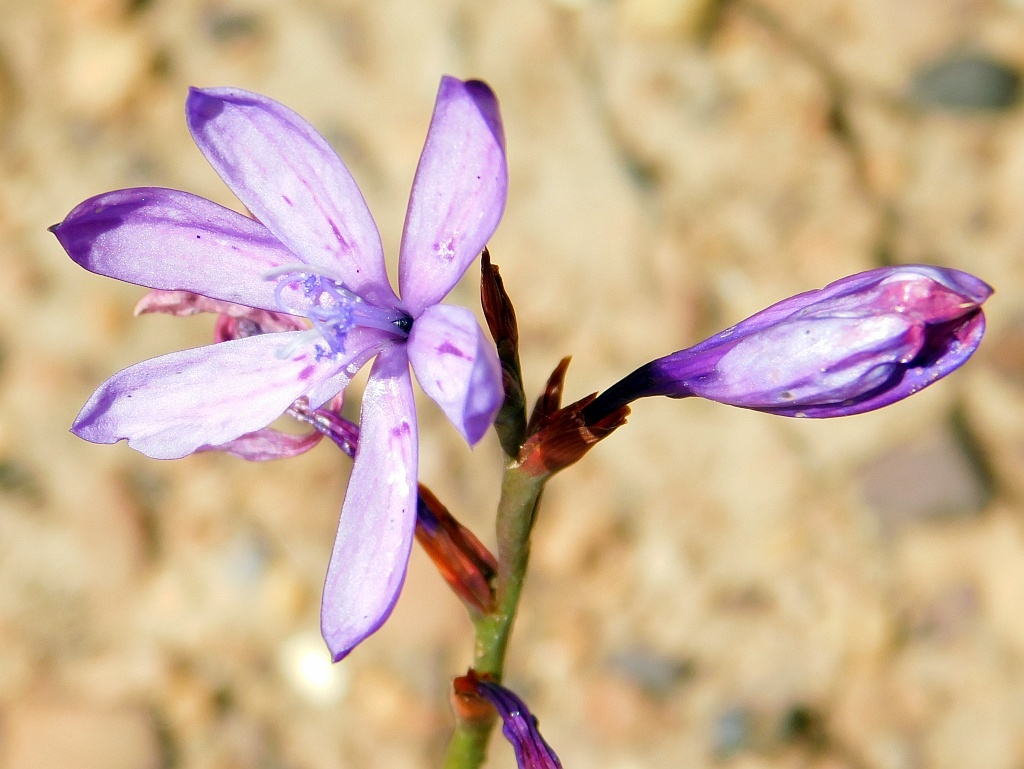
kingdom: Plantae
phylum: Tracheophyta
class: Liliopsida
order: Asparagales
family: Iridaceae
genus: Thereianthus
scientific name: Thereianthus bracteolatus
